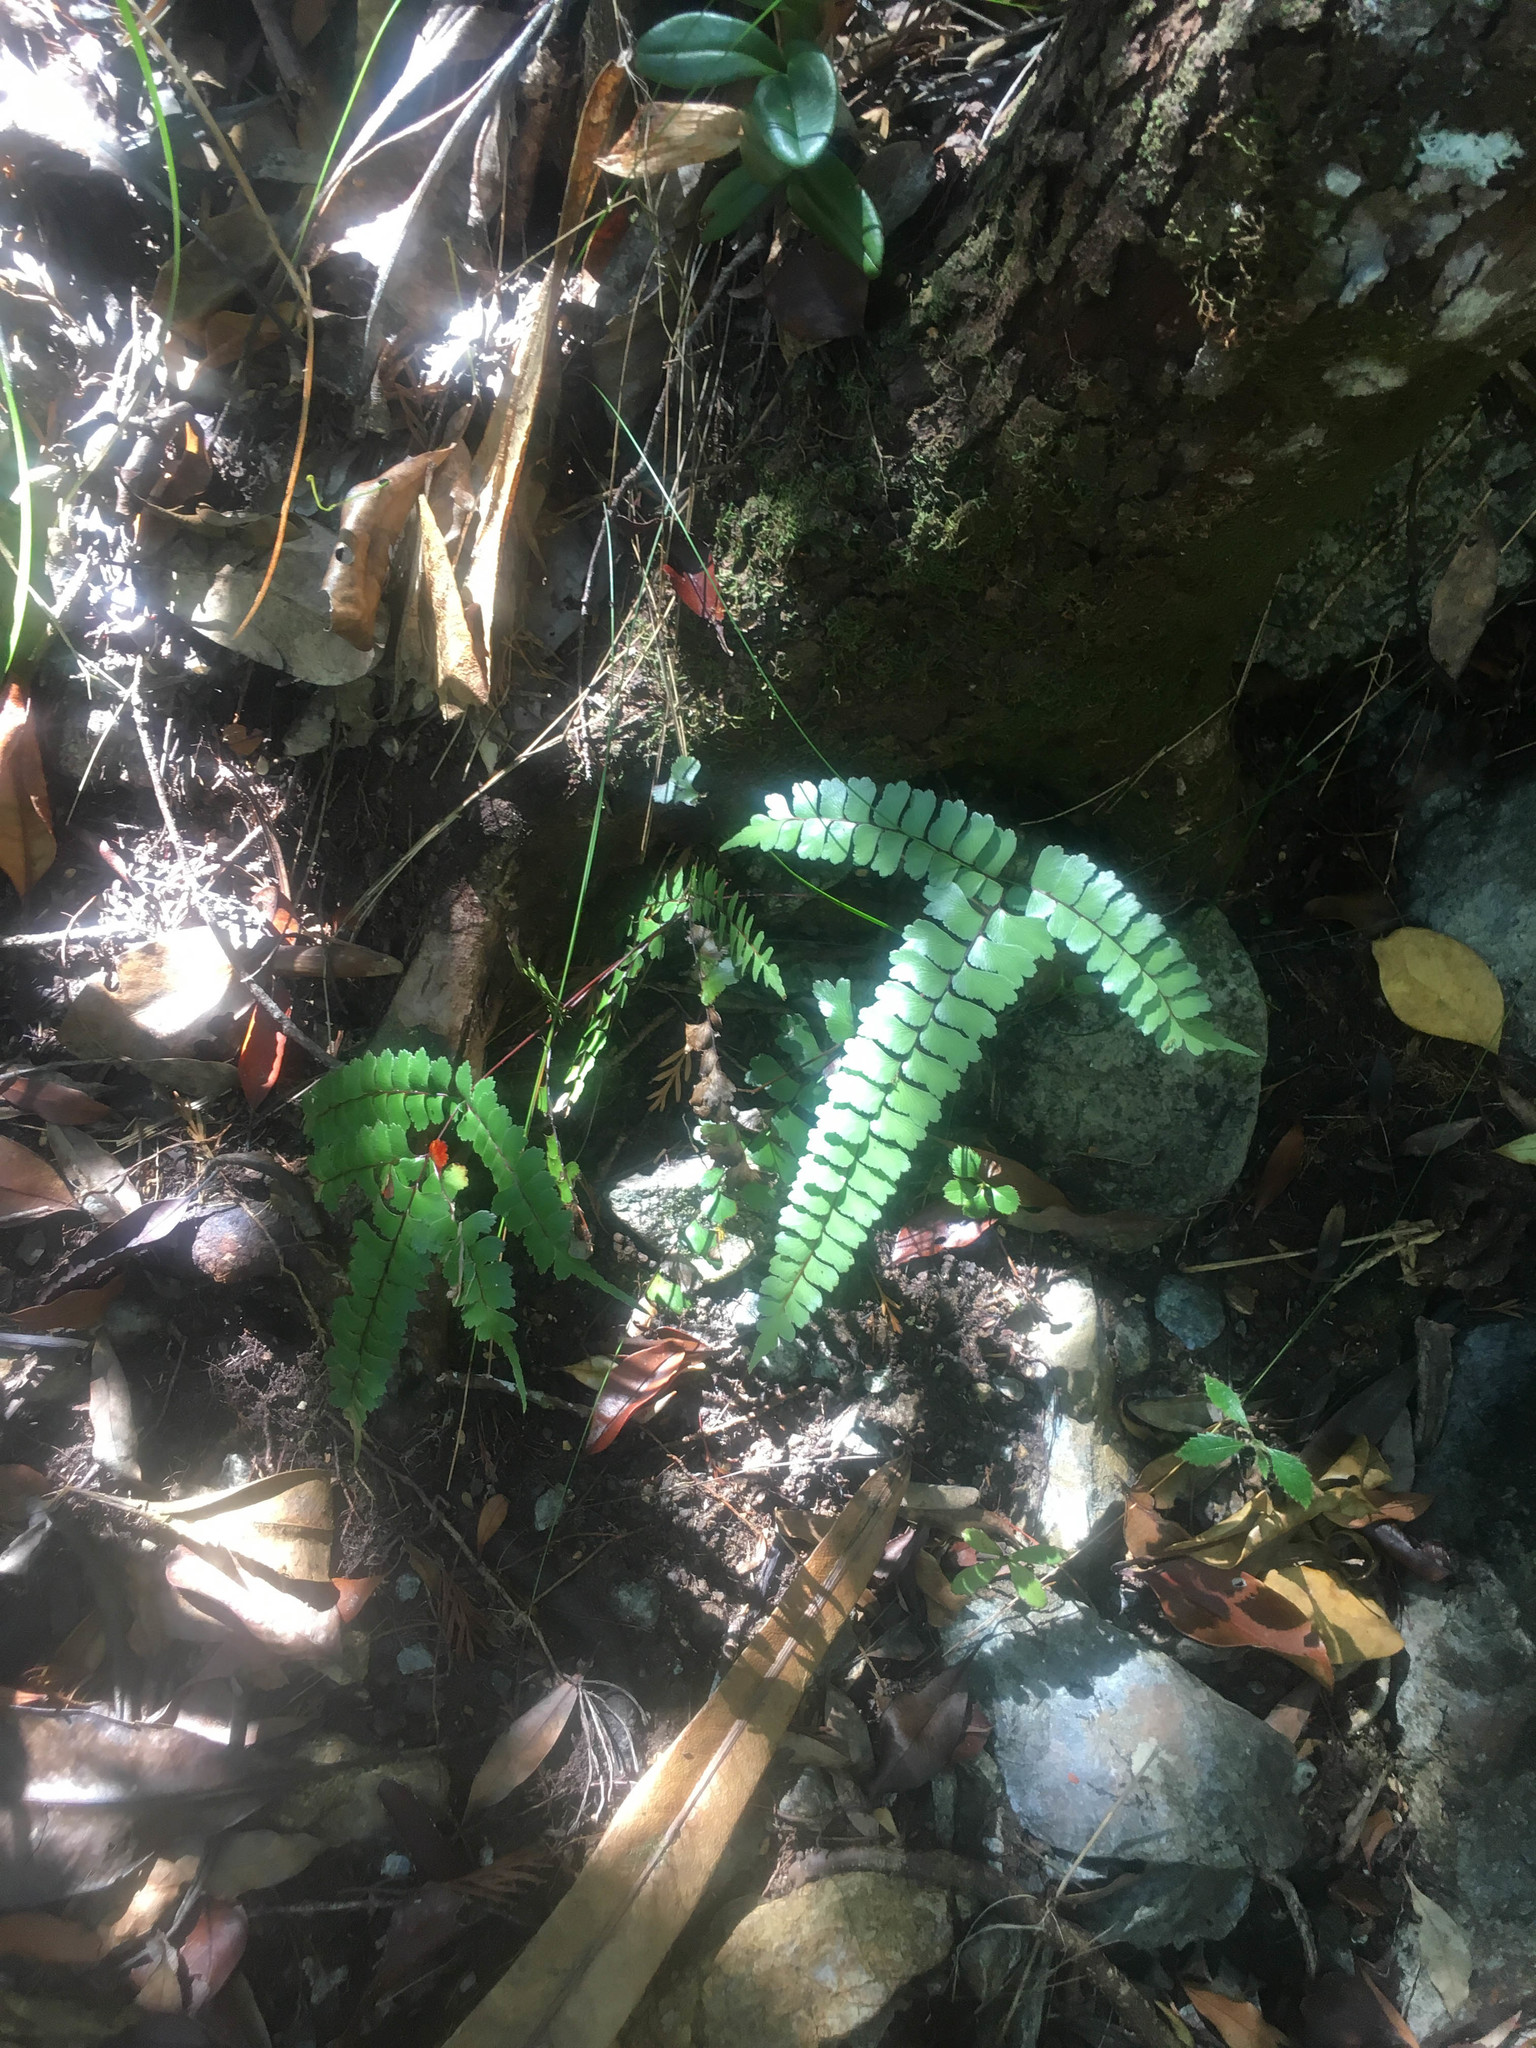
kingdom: Plantae
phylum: Tracheophyta
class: Polypodiopsida
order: Polypodiales
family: Lindsaeaceae
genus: Lindsaea
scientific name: Lindsaea nervosa
